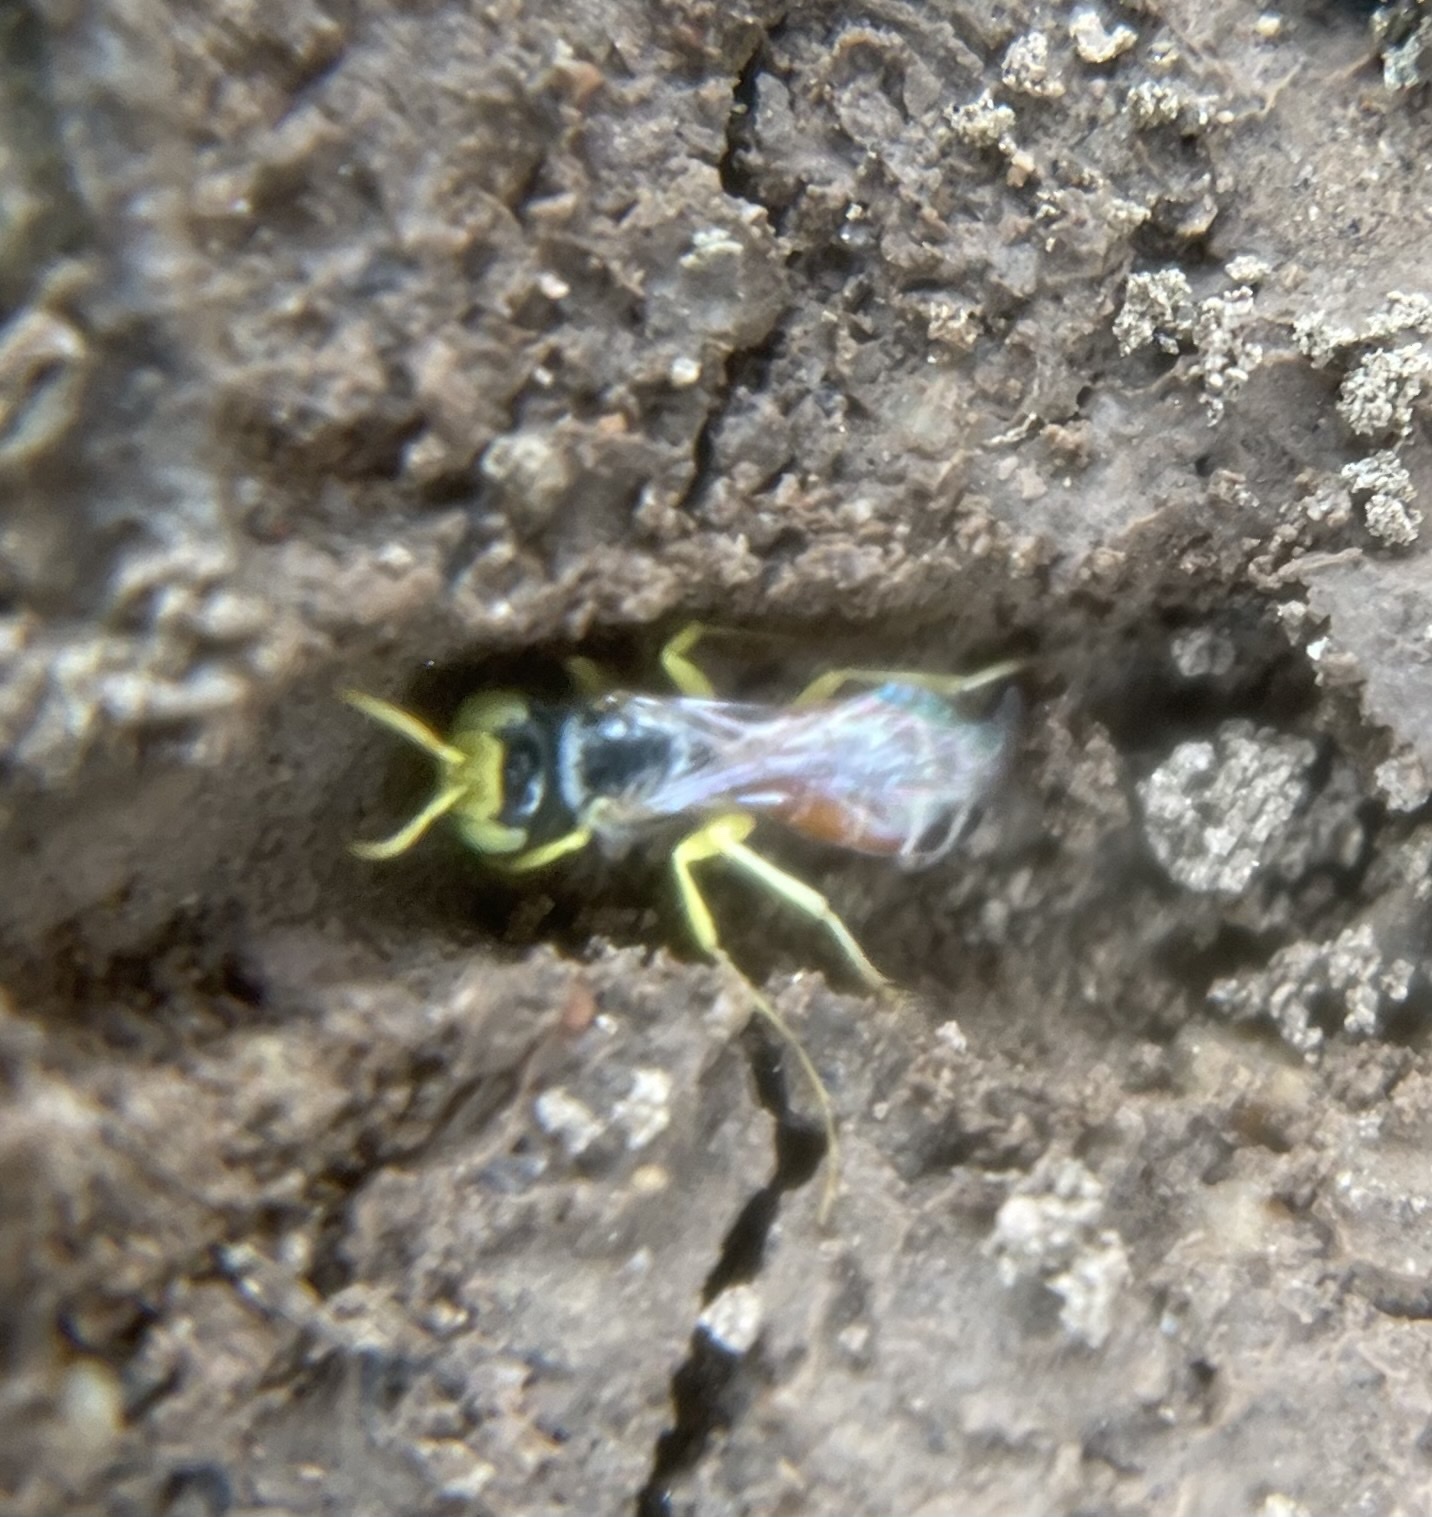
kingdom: Animalia
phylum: Arthropoda
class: Insecta
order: Hymenoptera
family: Andrenidae
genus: Calliopsis
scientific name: Calliopsis anomoptera
